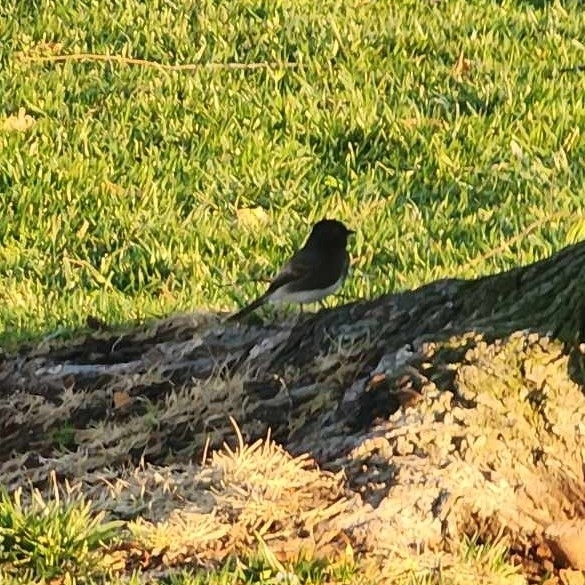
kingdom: Animalia
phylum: Chordata
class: Aves
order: Passeriformes
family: Tyrannidae
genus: Sayornis
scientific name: Sayornis nigricans
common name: Black phoebe
